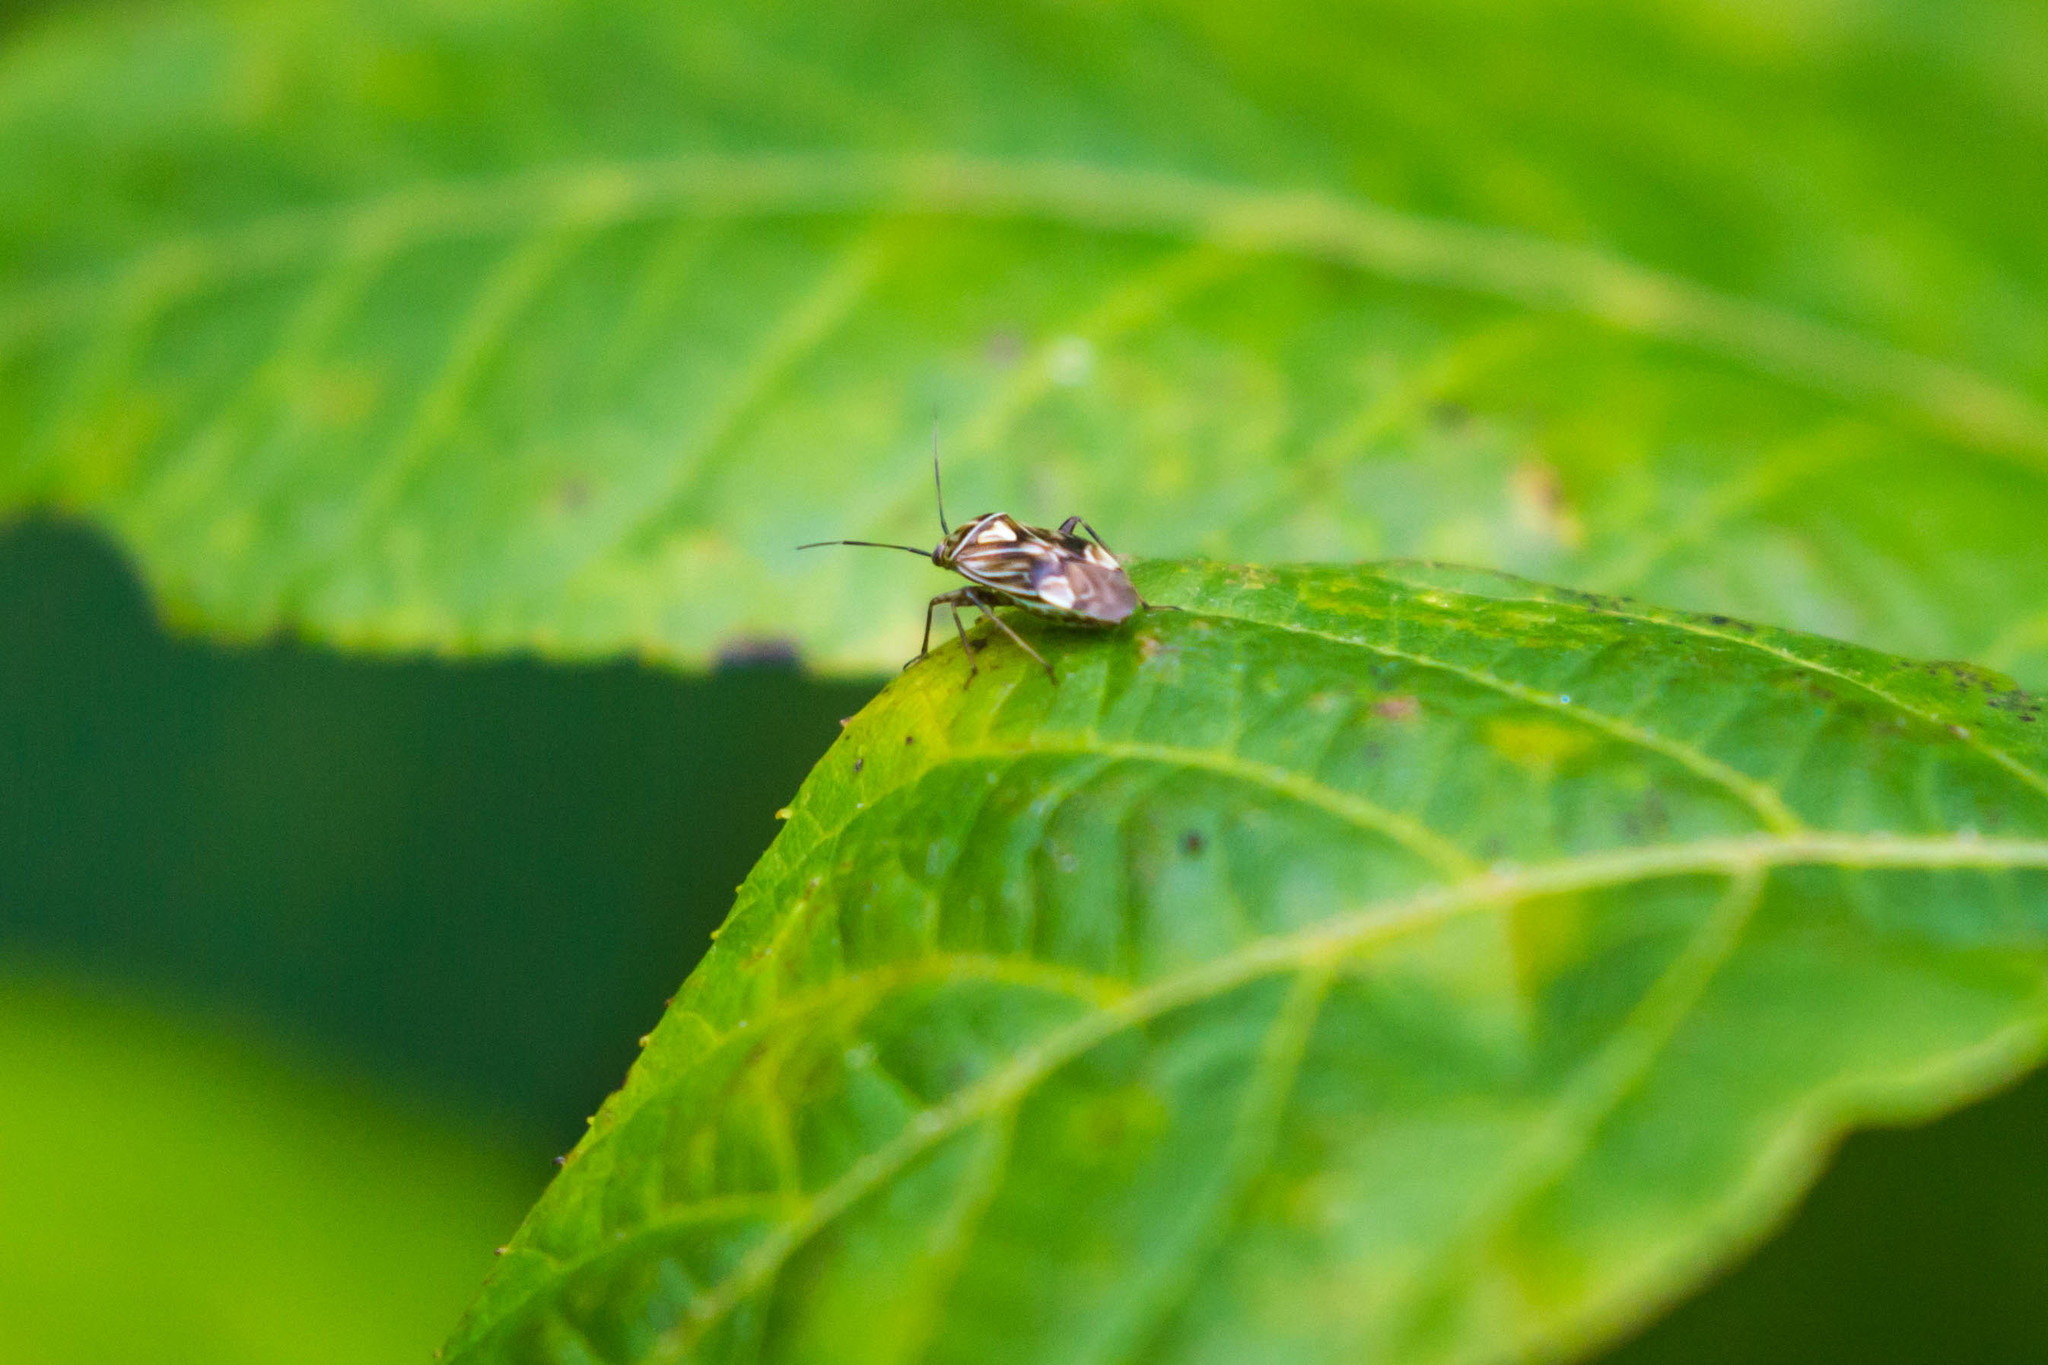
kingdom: Animalia
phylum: Arthropoda
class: Insecta
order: Hemiptera
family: Miridae
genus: Lygus
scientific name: Lygus lineolaris
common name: North american tarnished plant bug
